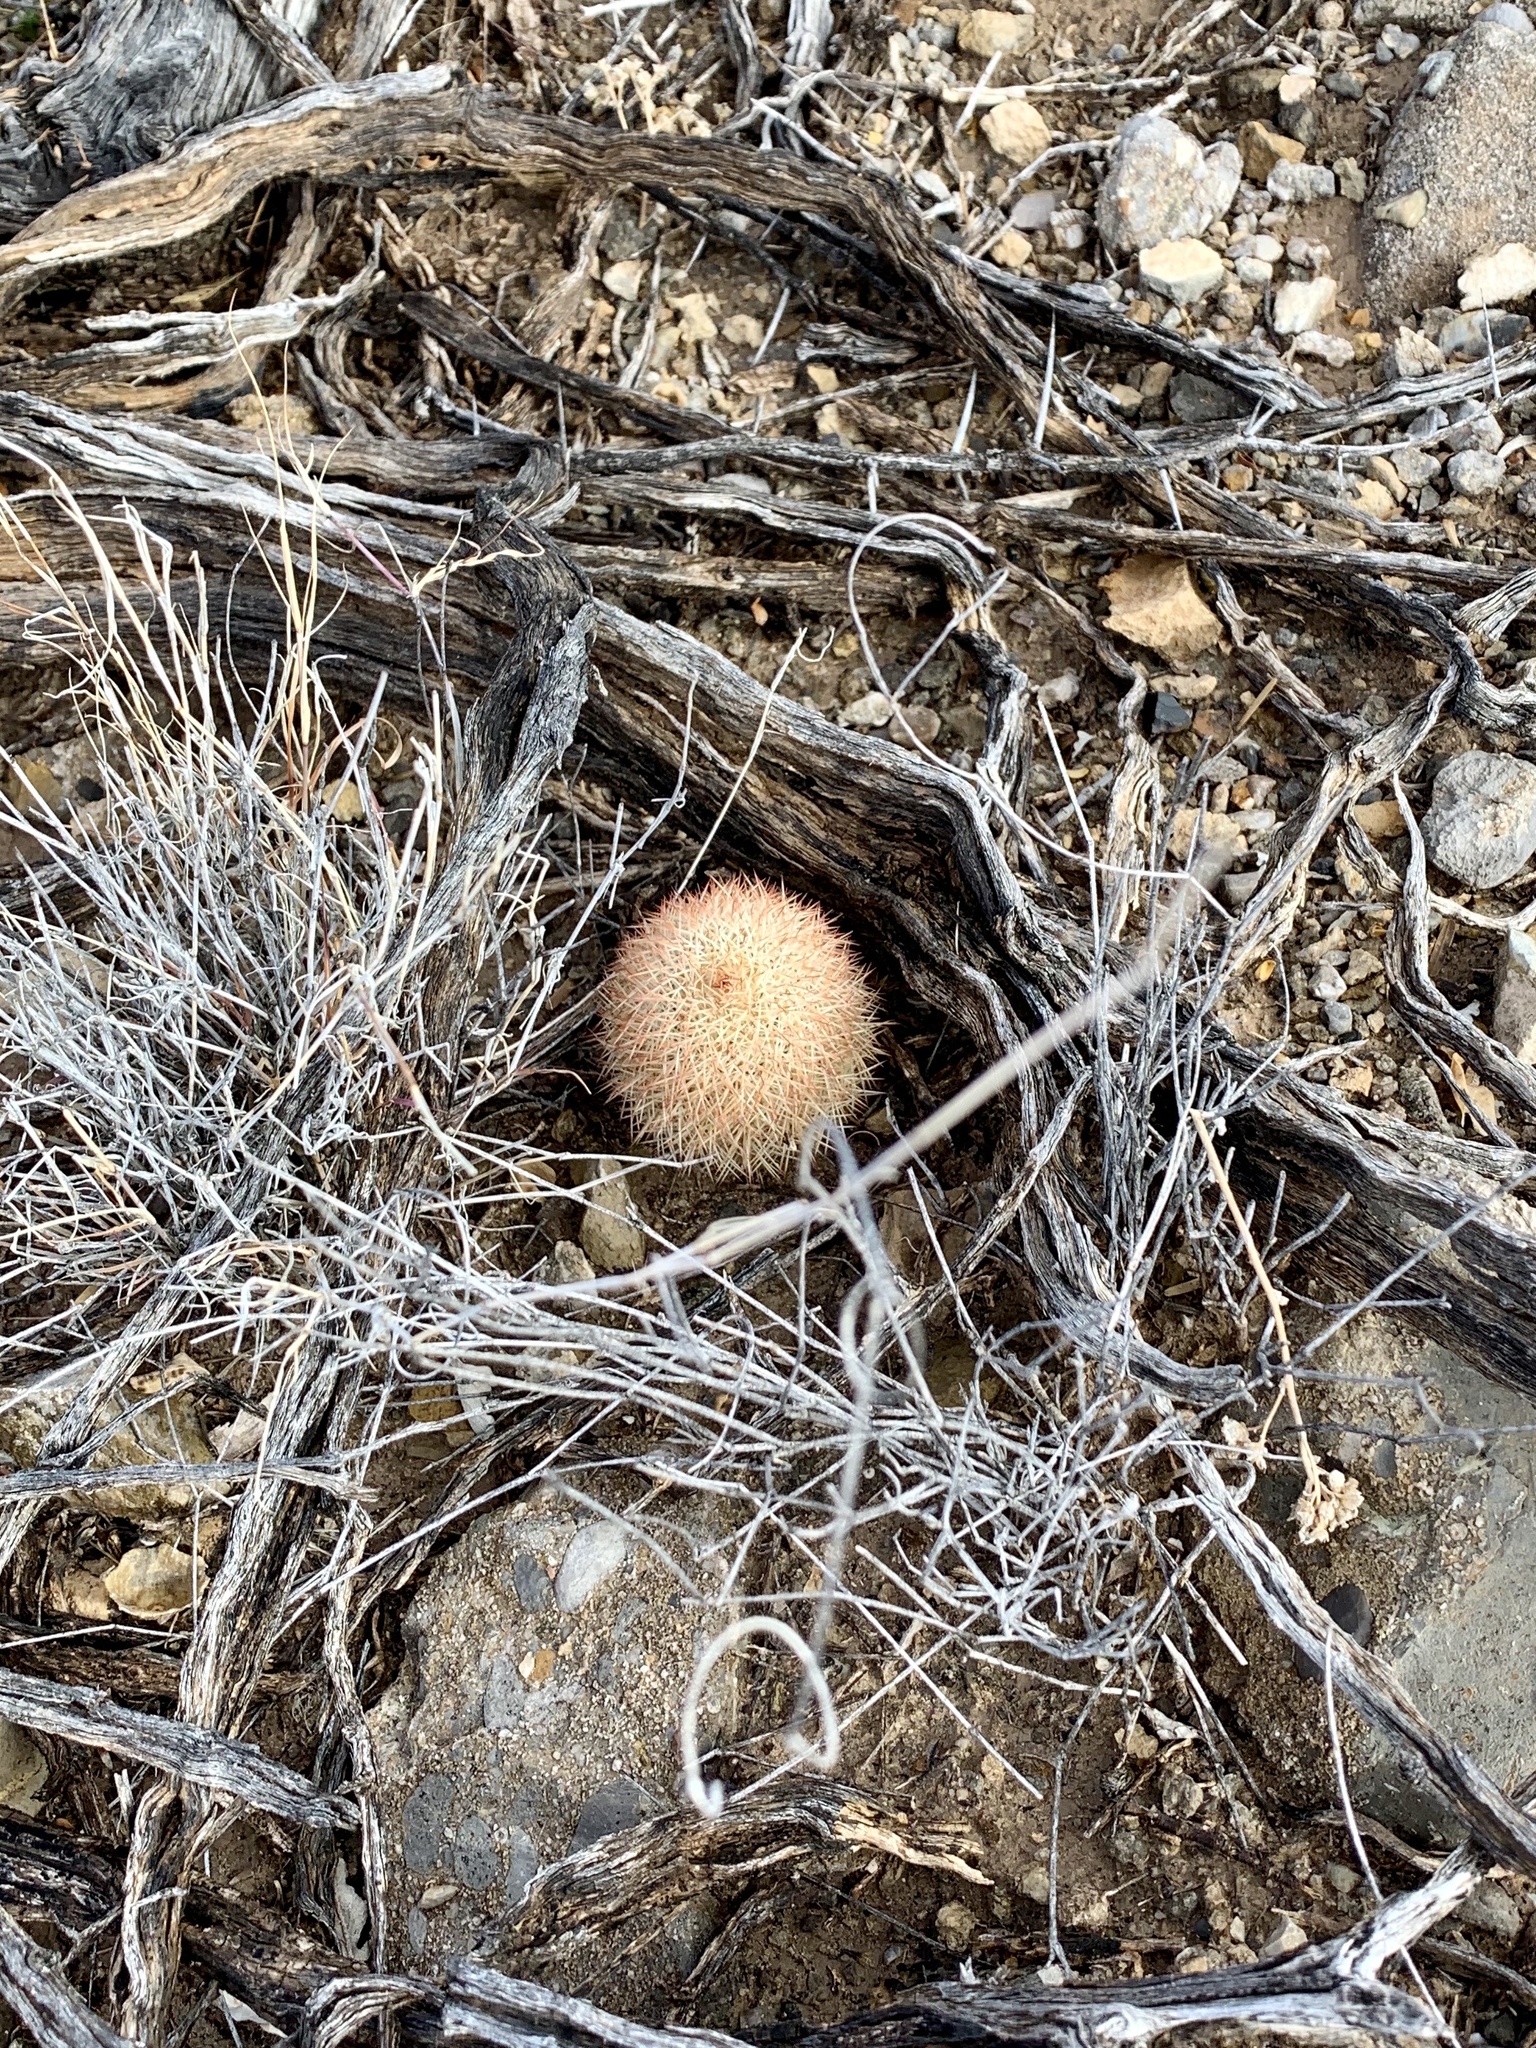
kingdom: Plantae
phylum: Tracheophyta
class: Magnoliopsida
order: Caryophyllales
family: Cactaceae
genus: Echinocereus
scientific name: Echinocereus dasyacanthus
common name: Spiny hedgehog cactus
